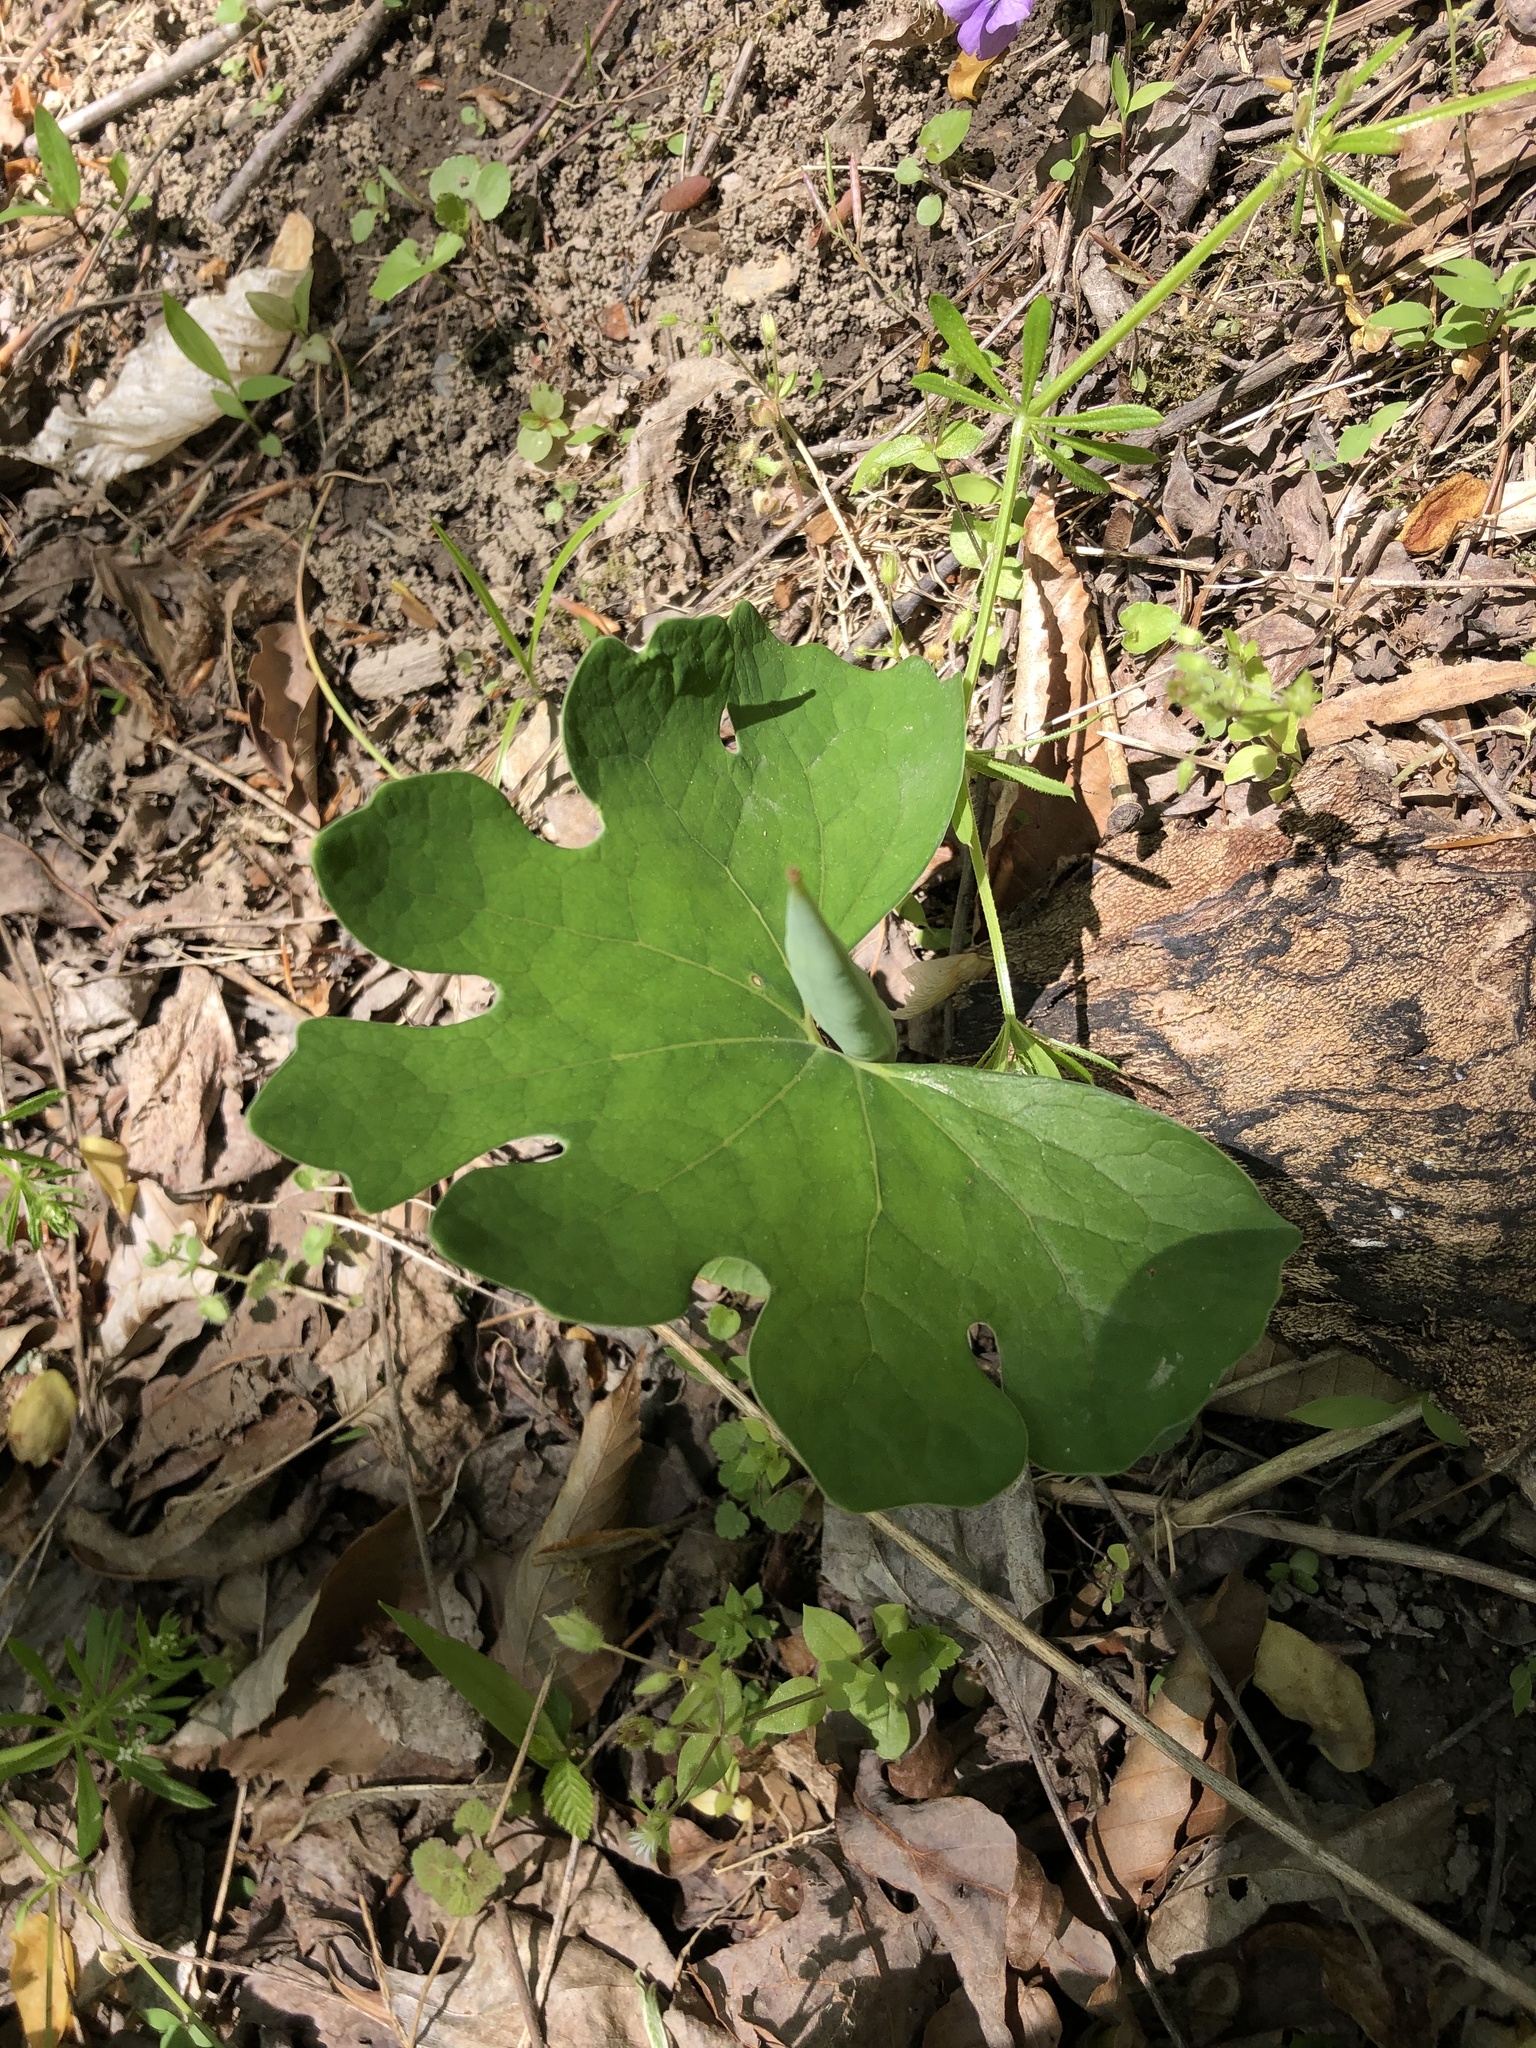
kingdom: Plantae
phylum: Tracheophyta
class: Magnoliopsida
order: Ranunculales
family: Papaveraceae
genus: Sanguinaria
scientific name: Sanguinaria canadensis
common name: Bloodroot
